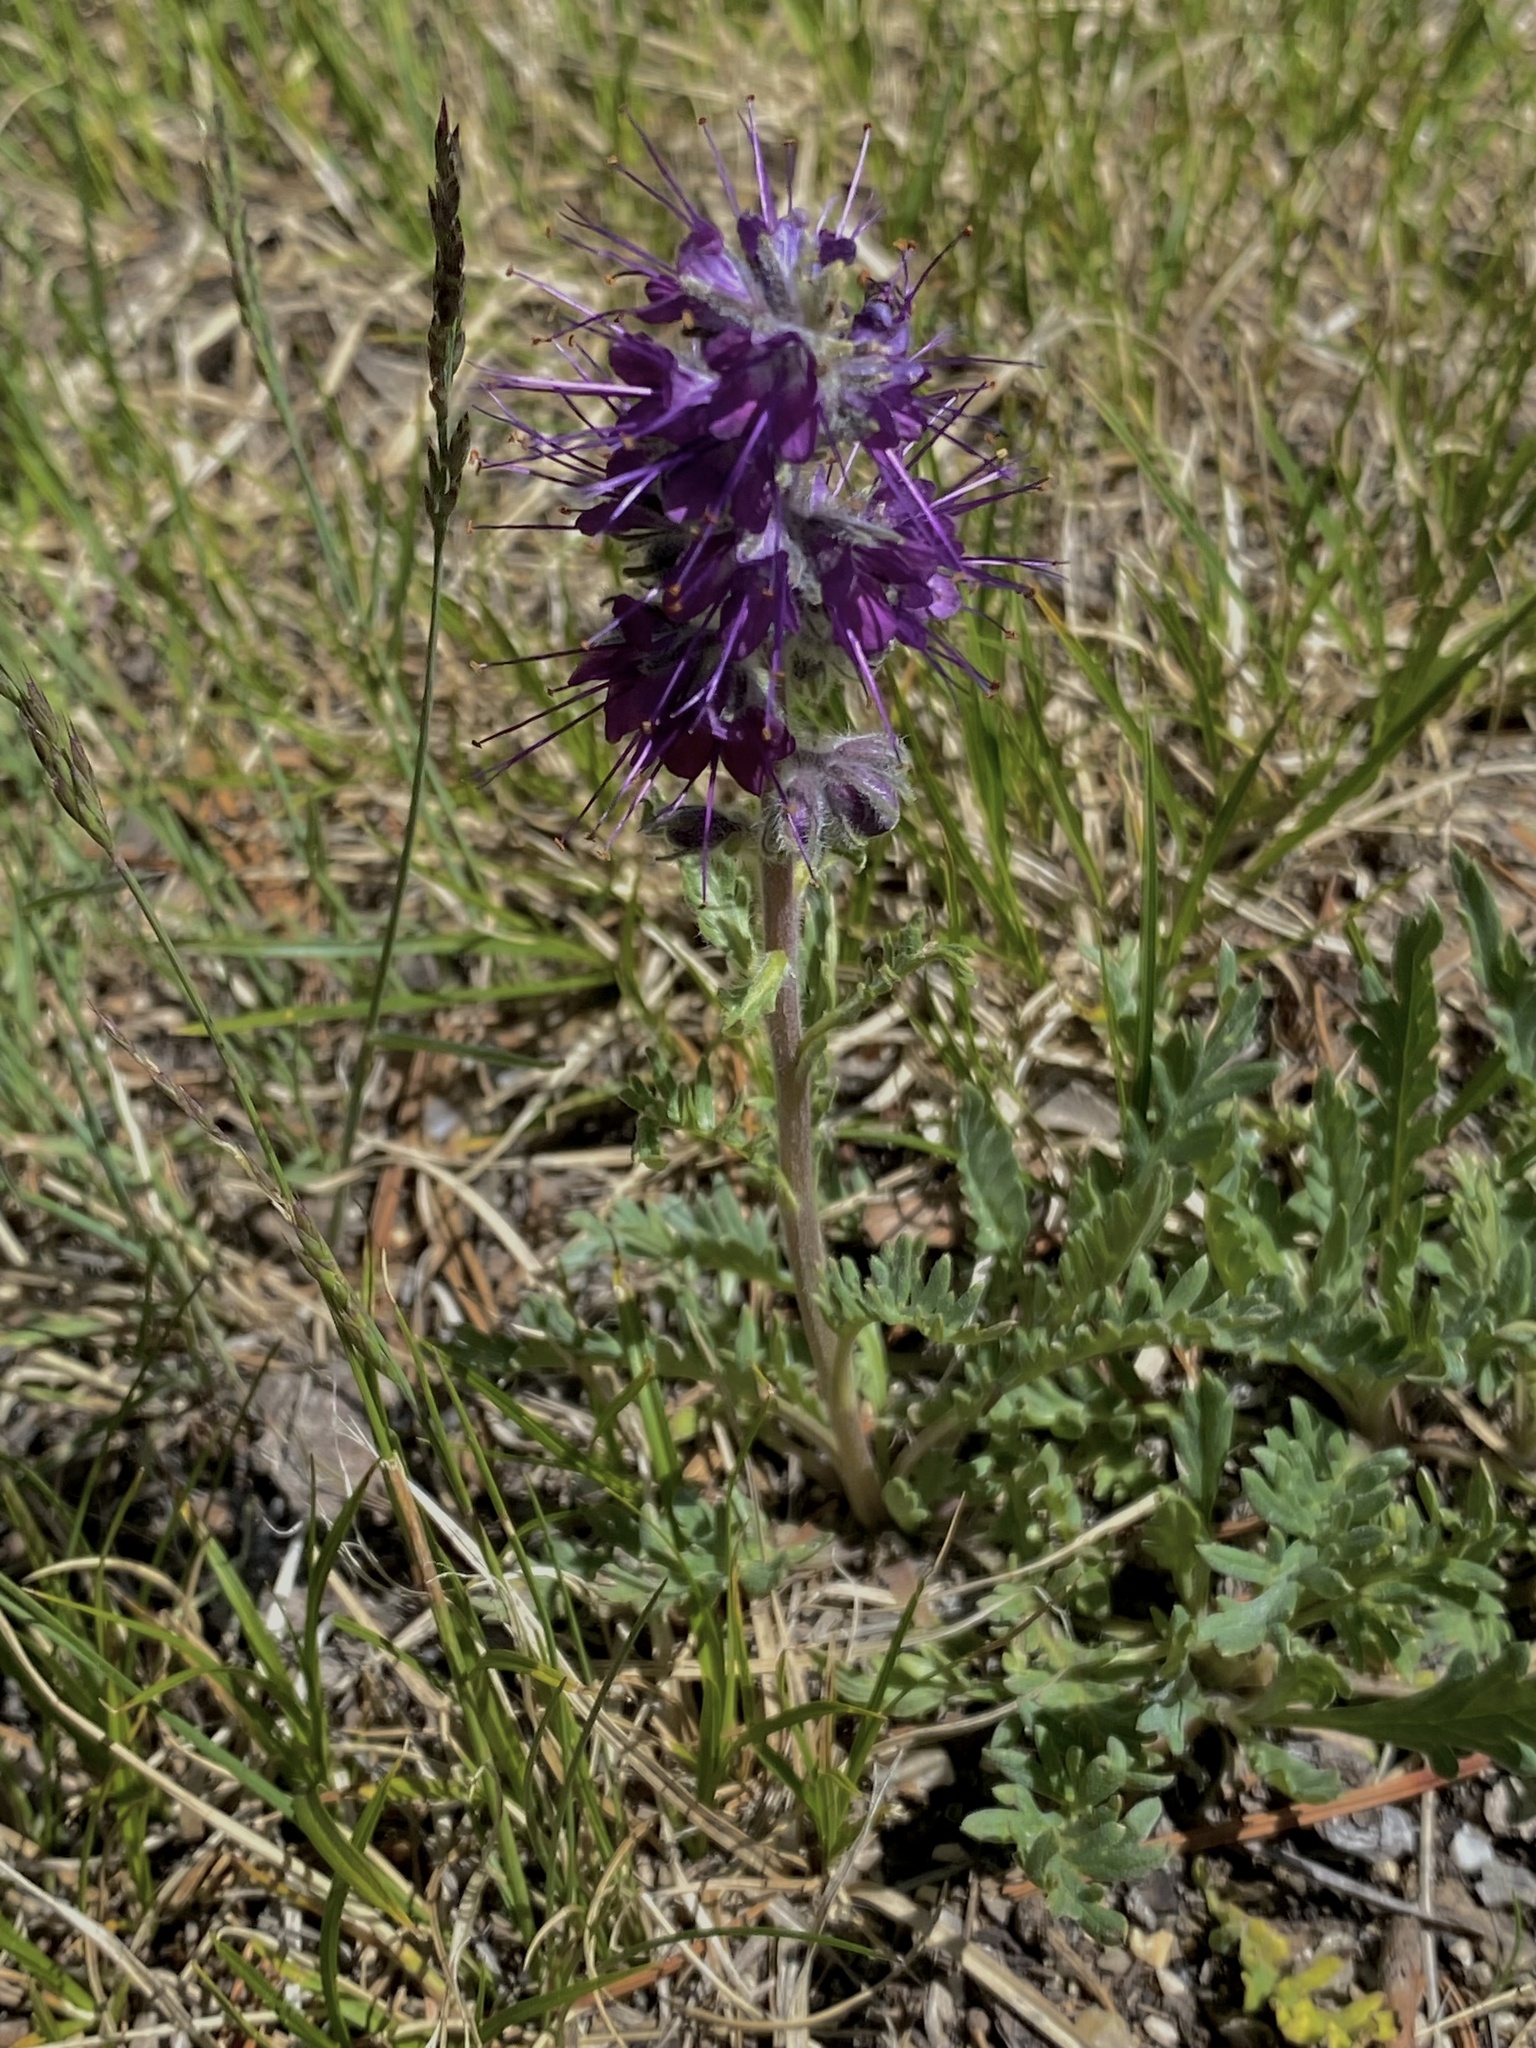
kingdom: Plantae
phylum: Tracheophyta
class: Magnoliopsida
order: Boraginales
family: Hydrophyllaceae
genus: Phacelia
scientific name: Phacelia sericea
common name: Silky phacelia
